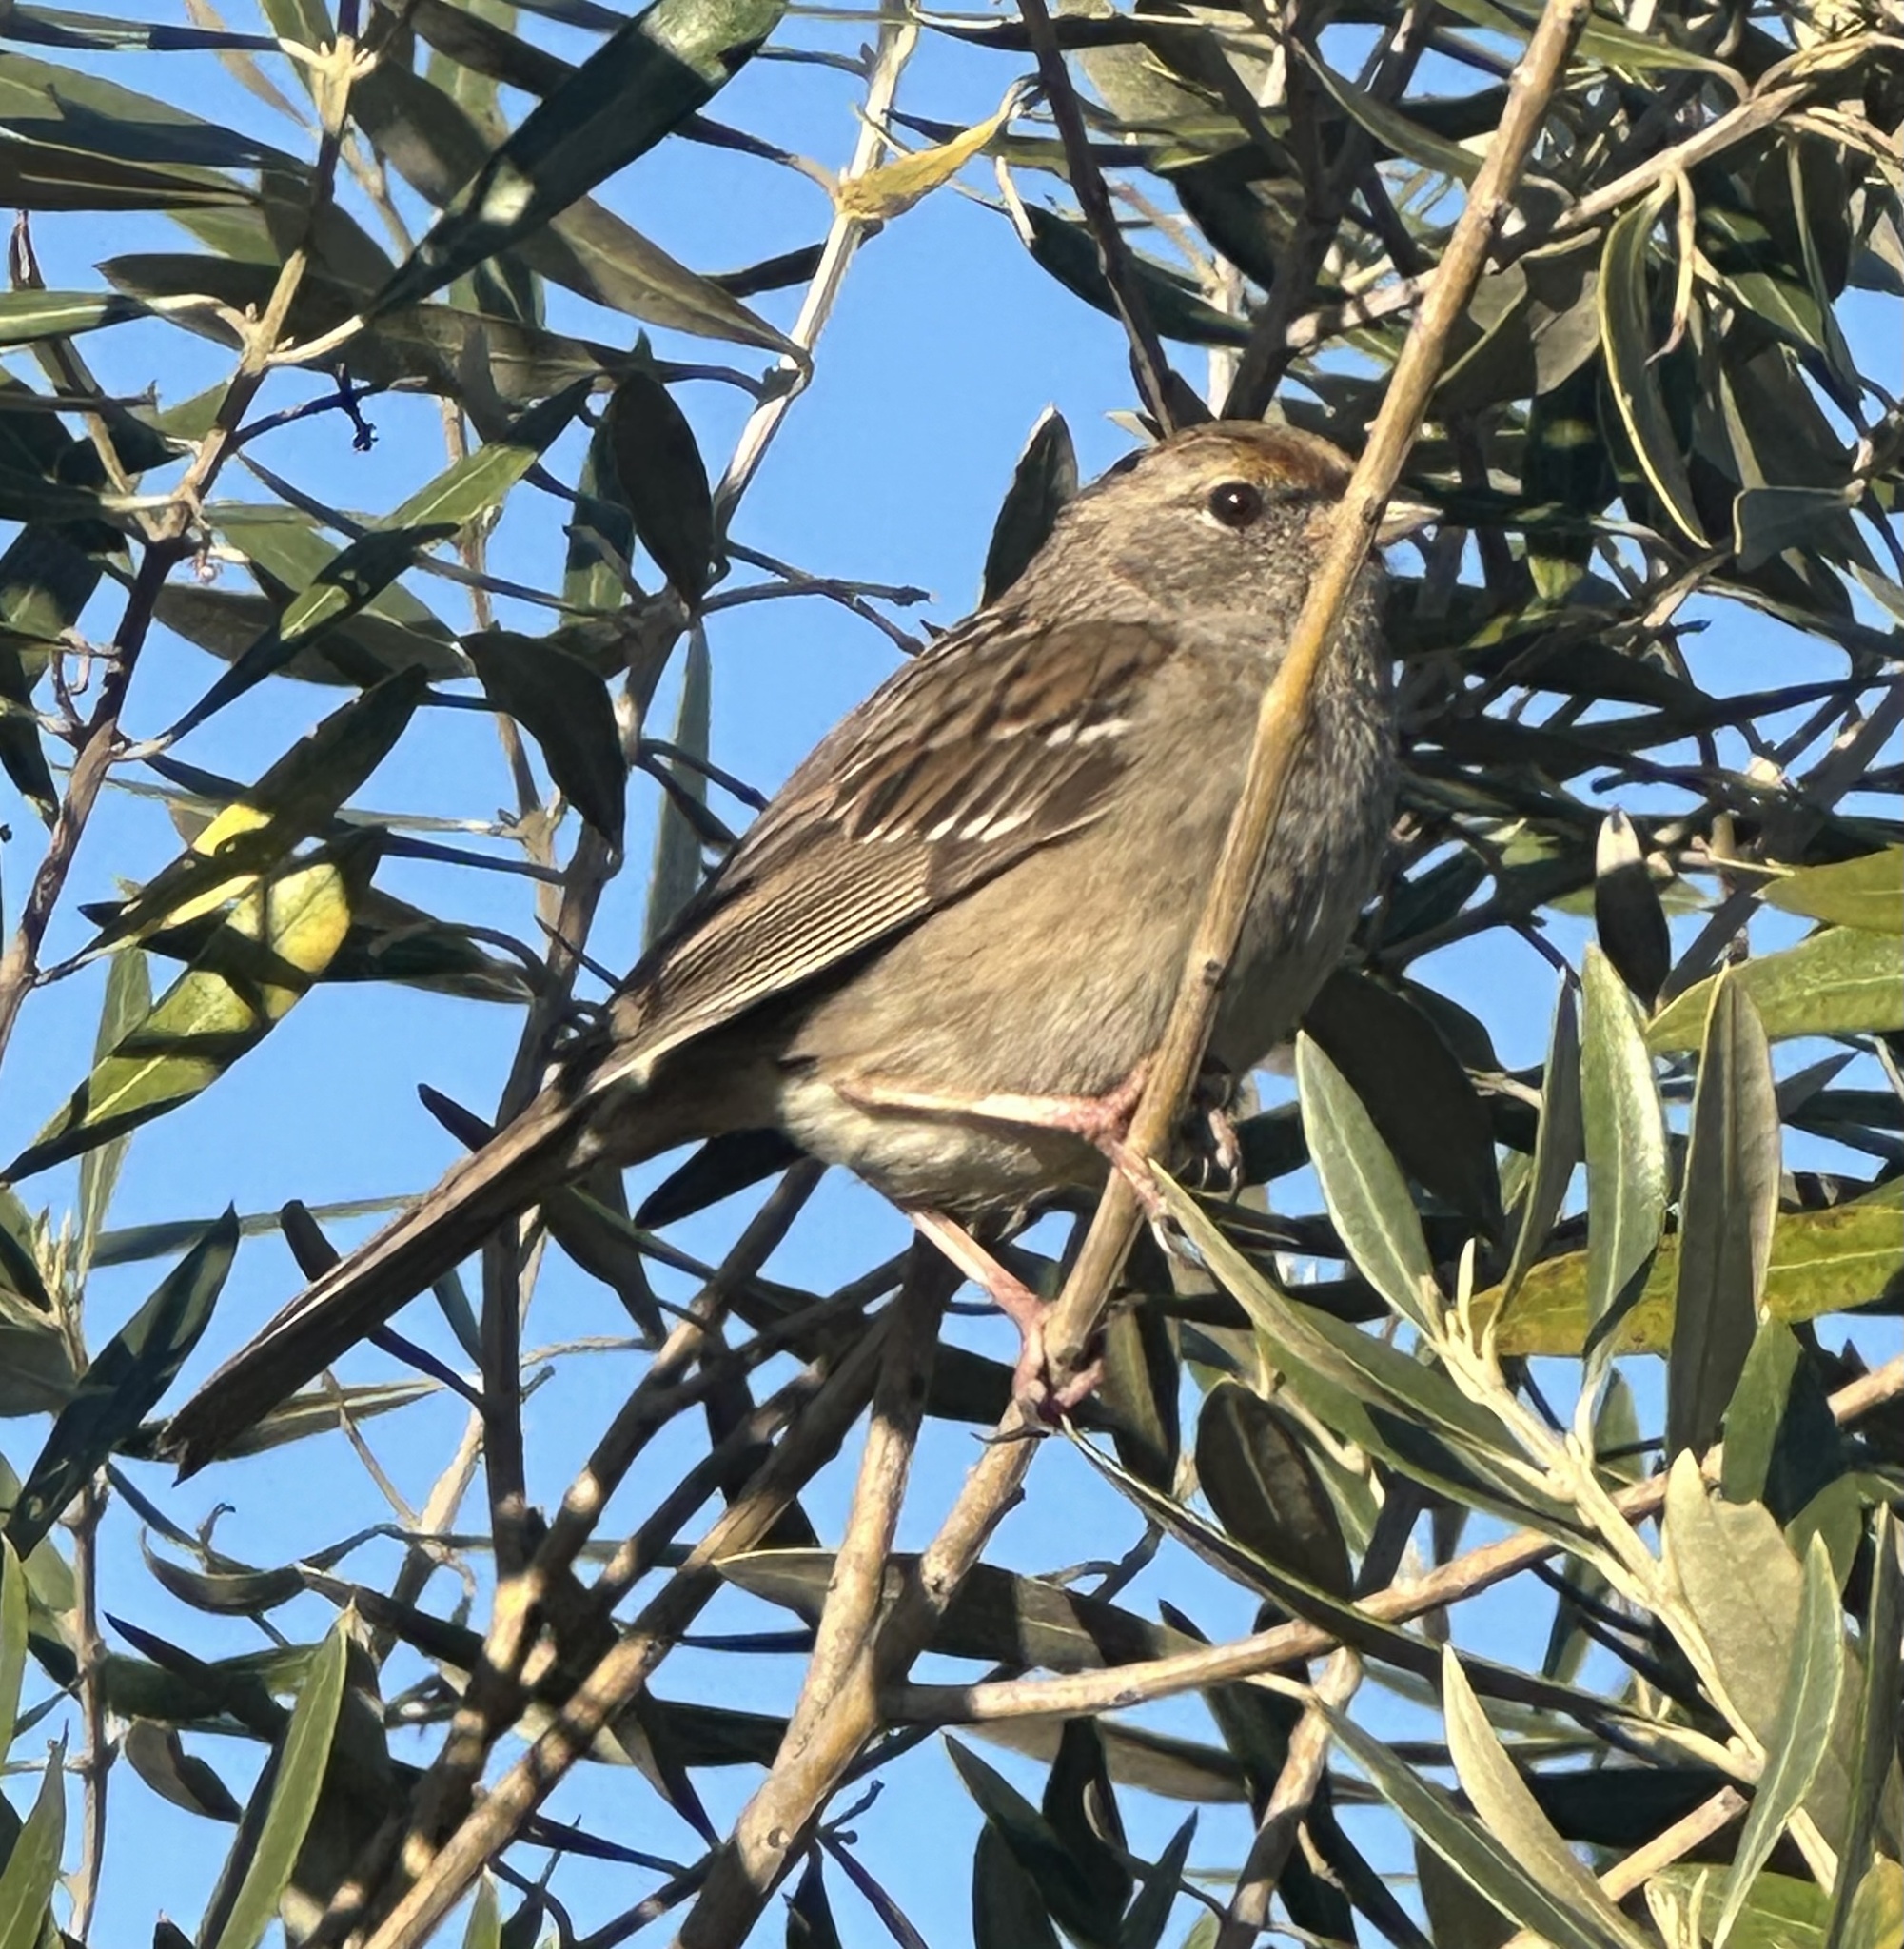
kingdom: Animalia
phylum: Chordata
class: Aves
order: Passeriformes
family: Passerellidae
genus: Zonotrichia
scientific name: Zonotrichia atricapilla
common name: Golden-crowned sparrow
